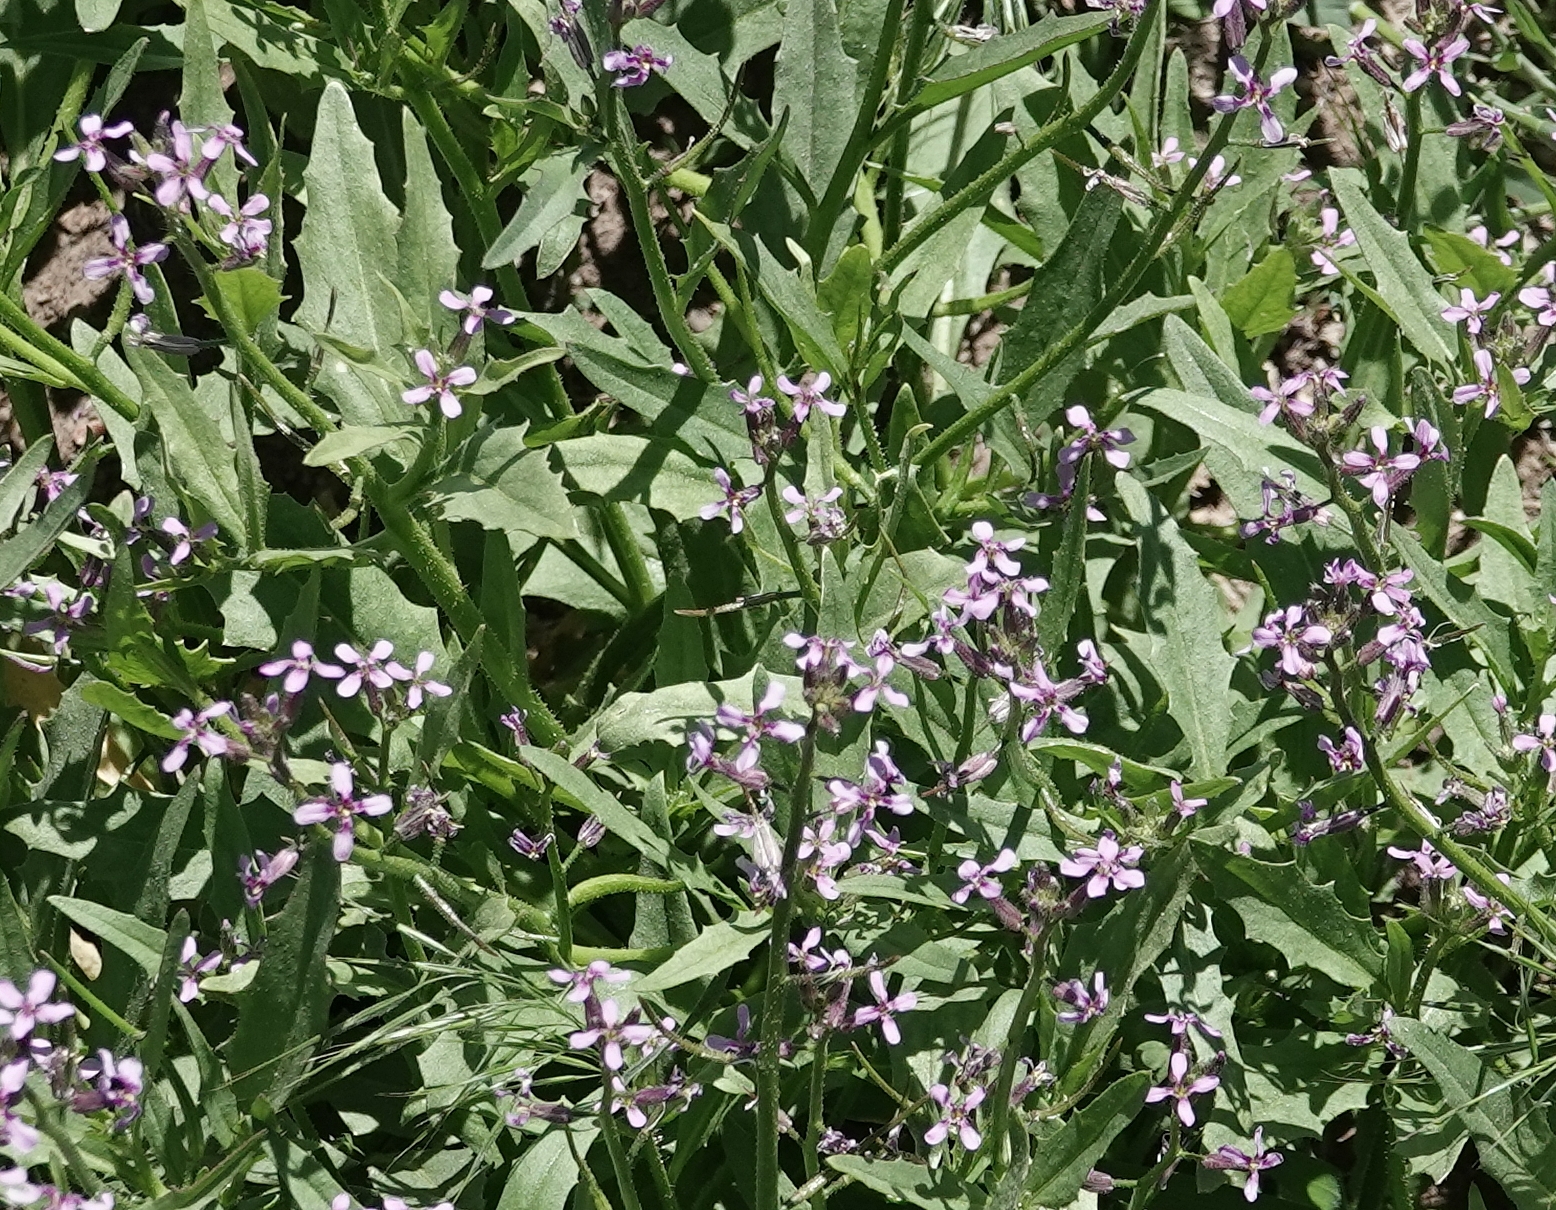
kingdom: Plantae
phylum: Tracheophyta
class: Magnoliopsida
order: Brassicales
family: Brassicaceae
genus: Chorispora
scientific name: Chorispora tenella
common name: Crossflower
